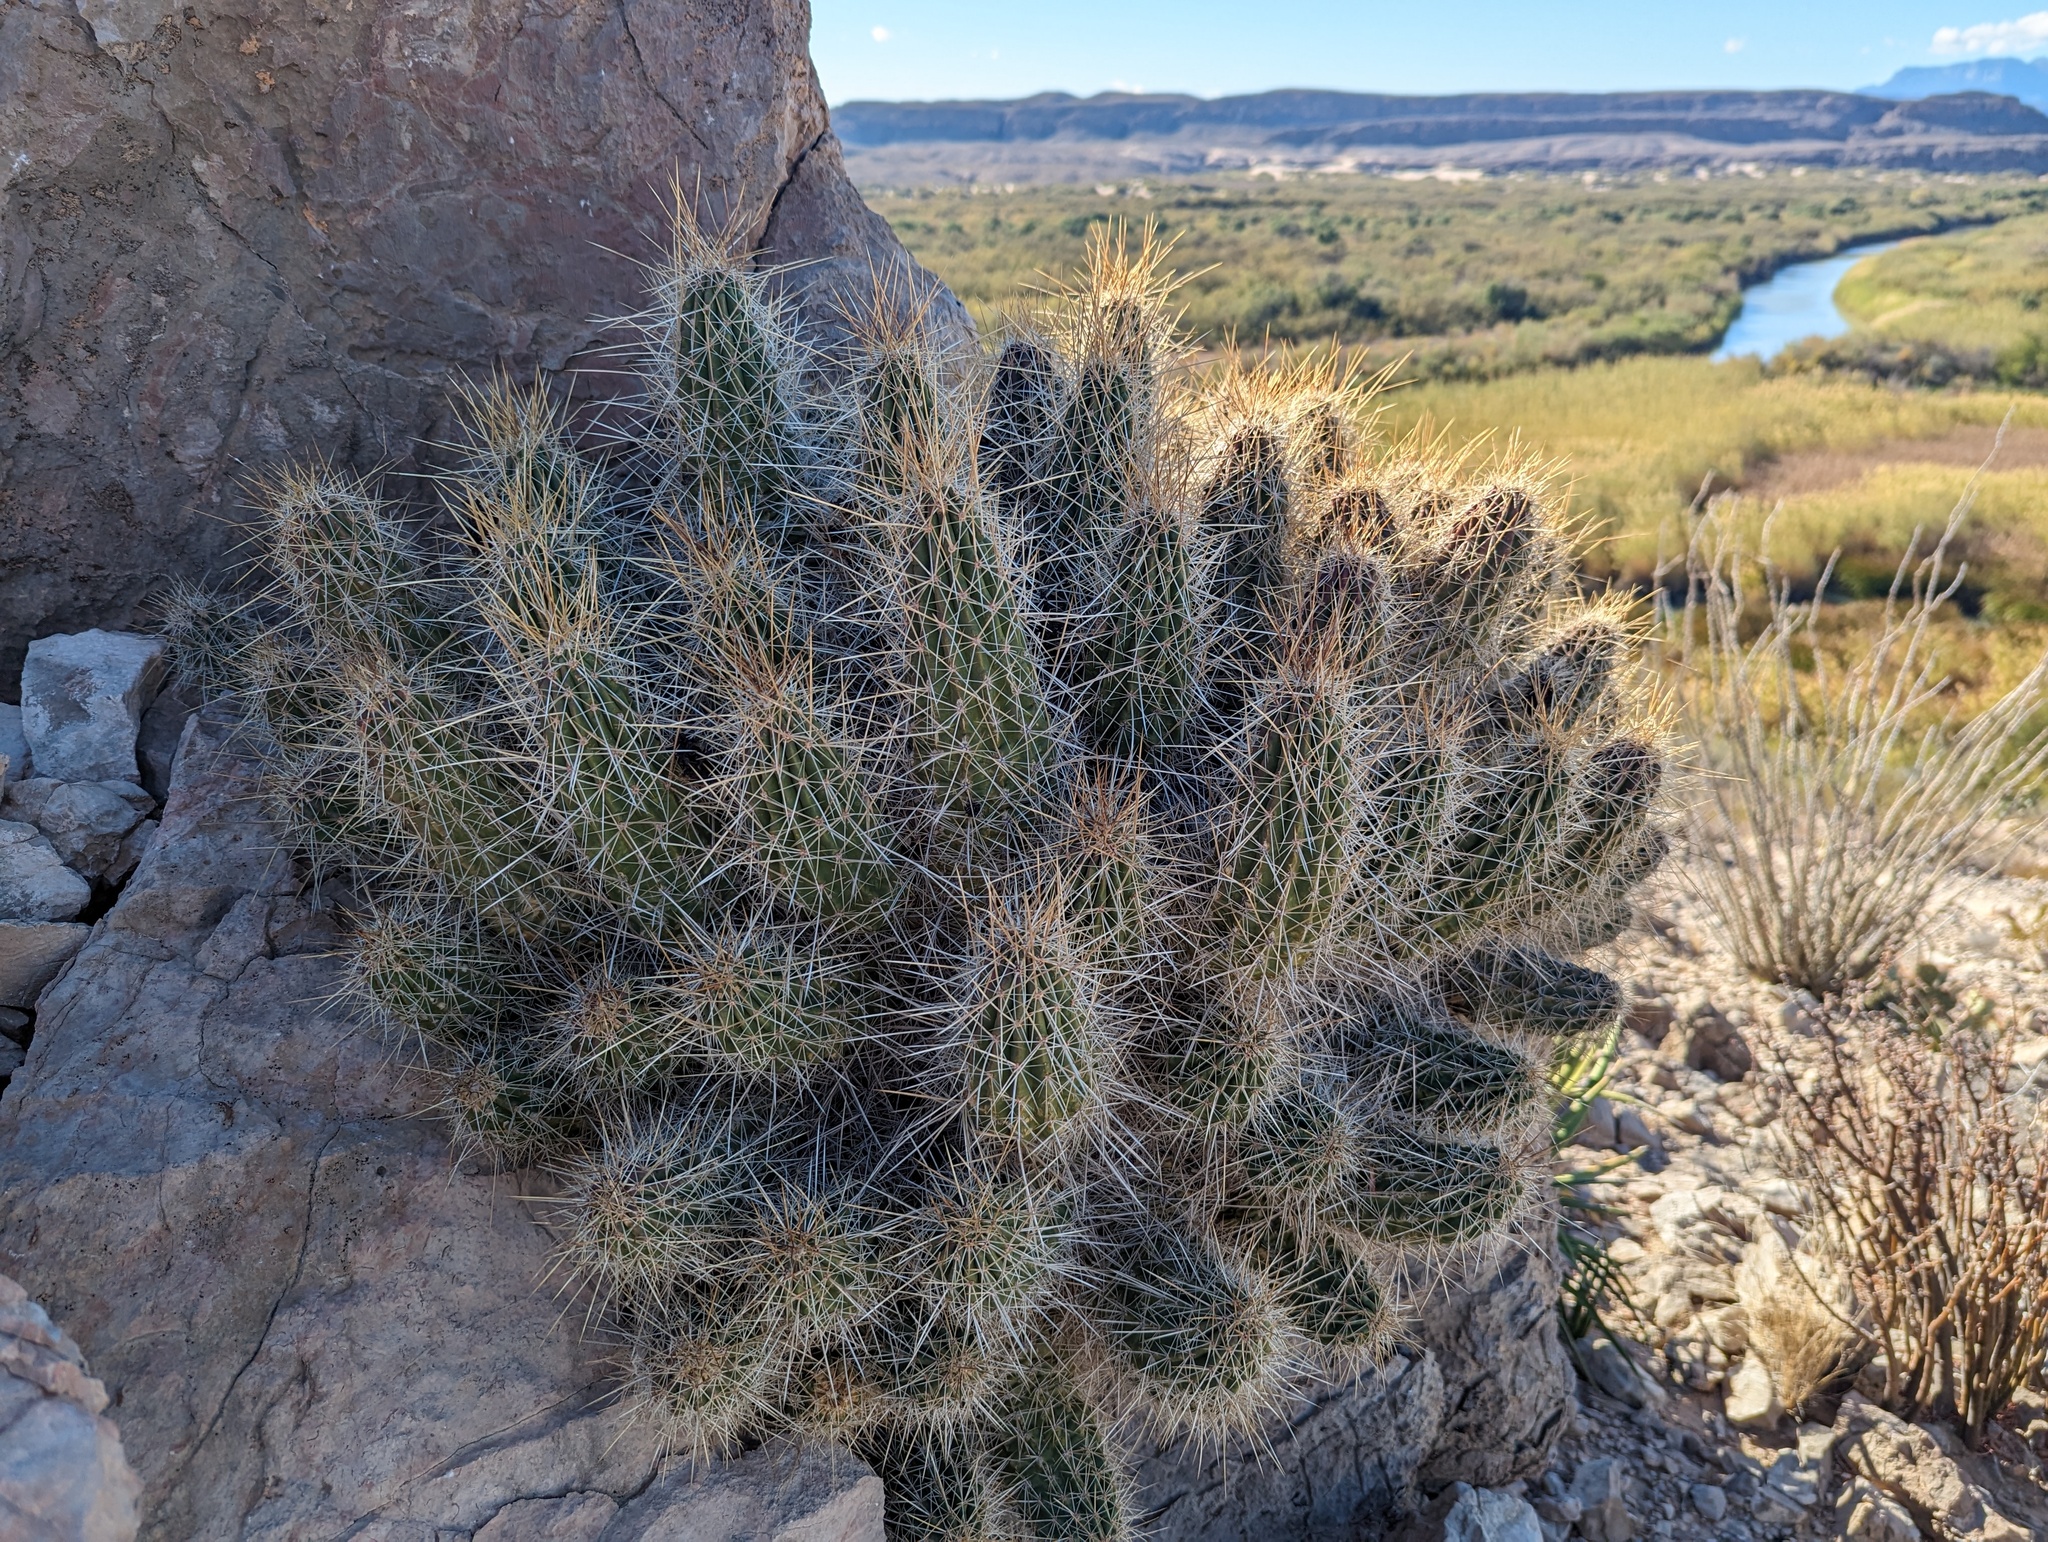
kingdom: Plantae
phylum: Tracheophyta
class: Magnoliopsida
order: Caryophyllales
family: Cactaceae
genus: Echinocereus
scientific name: Echinocereus stramineus
